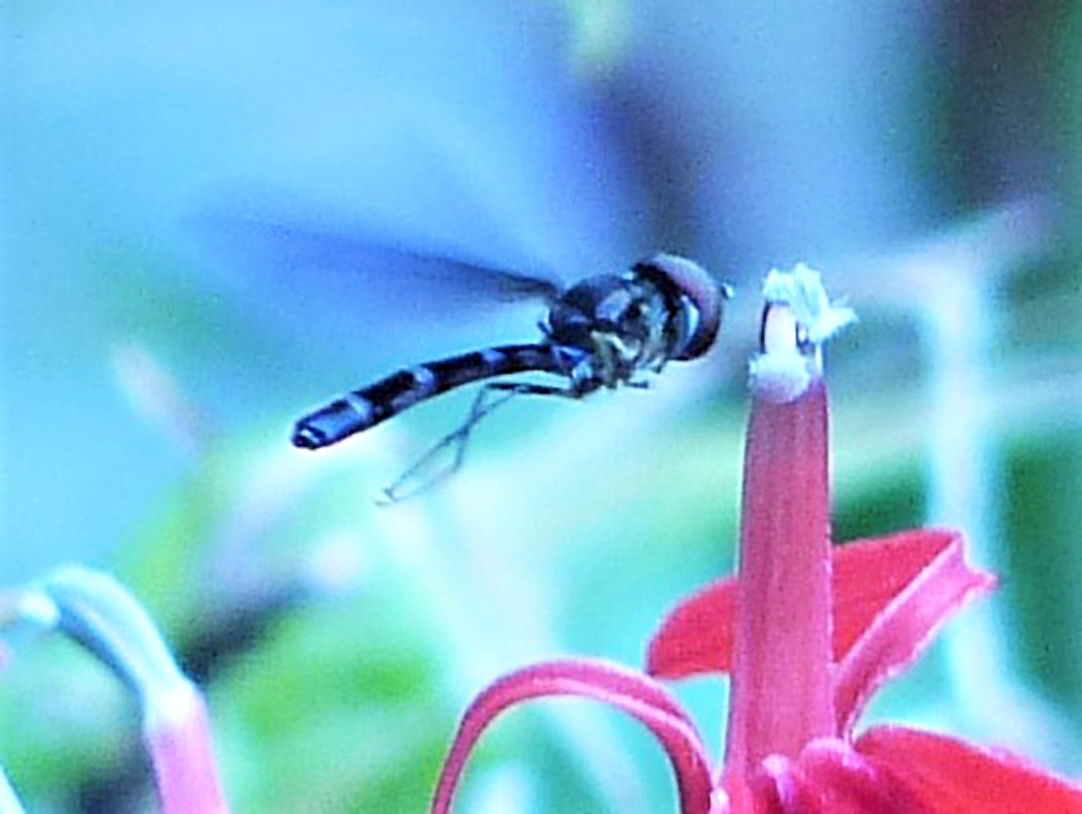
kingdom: Animalia
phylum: Arthropoda
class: Insecta
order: Diptera
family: Syrphidae
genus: Ocyptamus
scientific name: Ocyptamus fuscipennis
